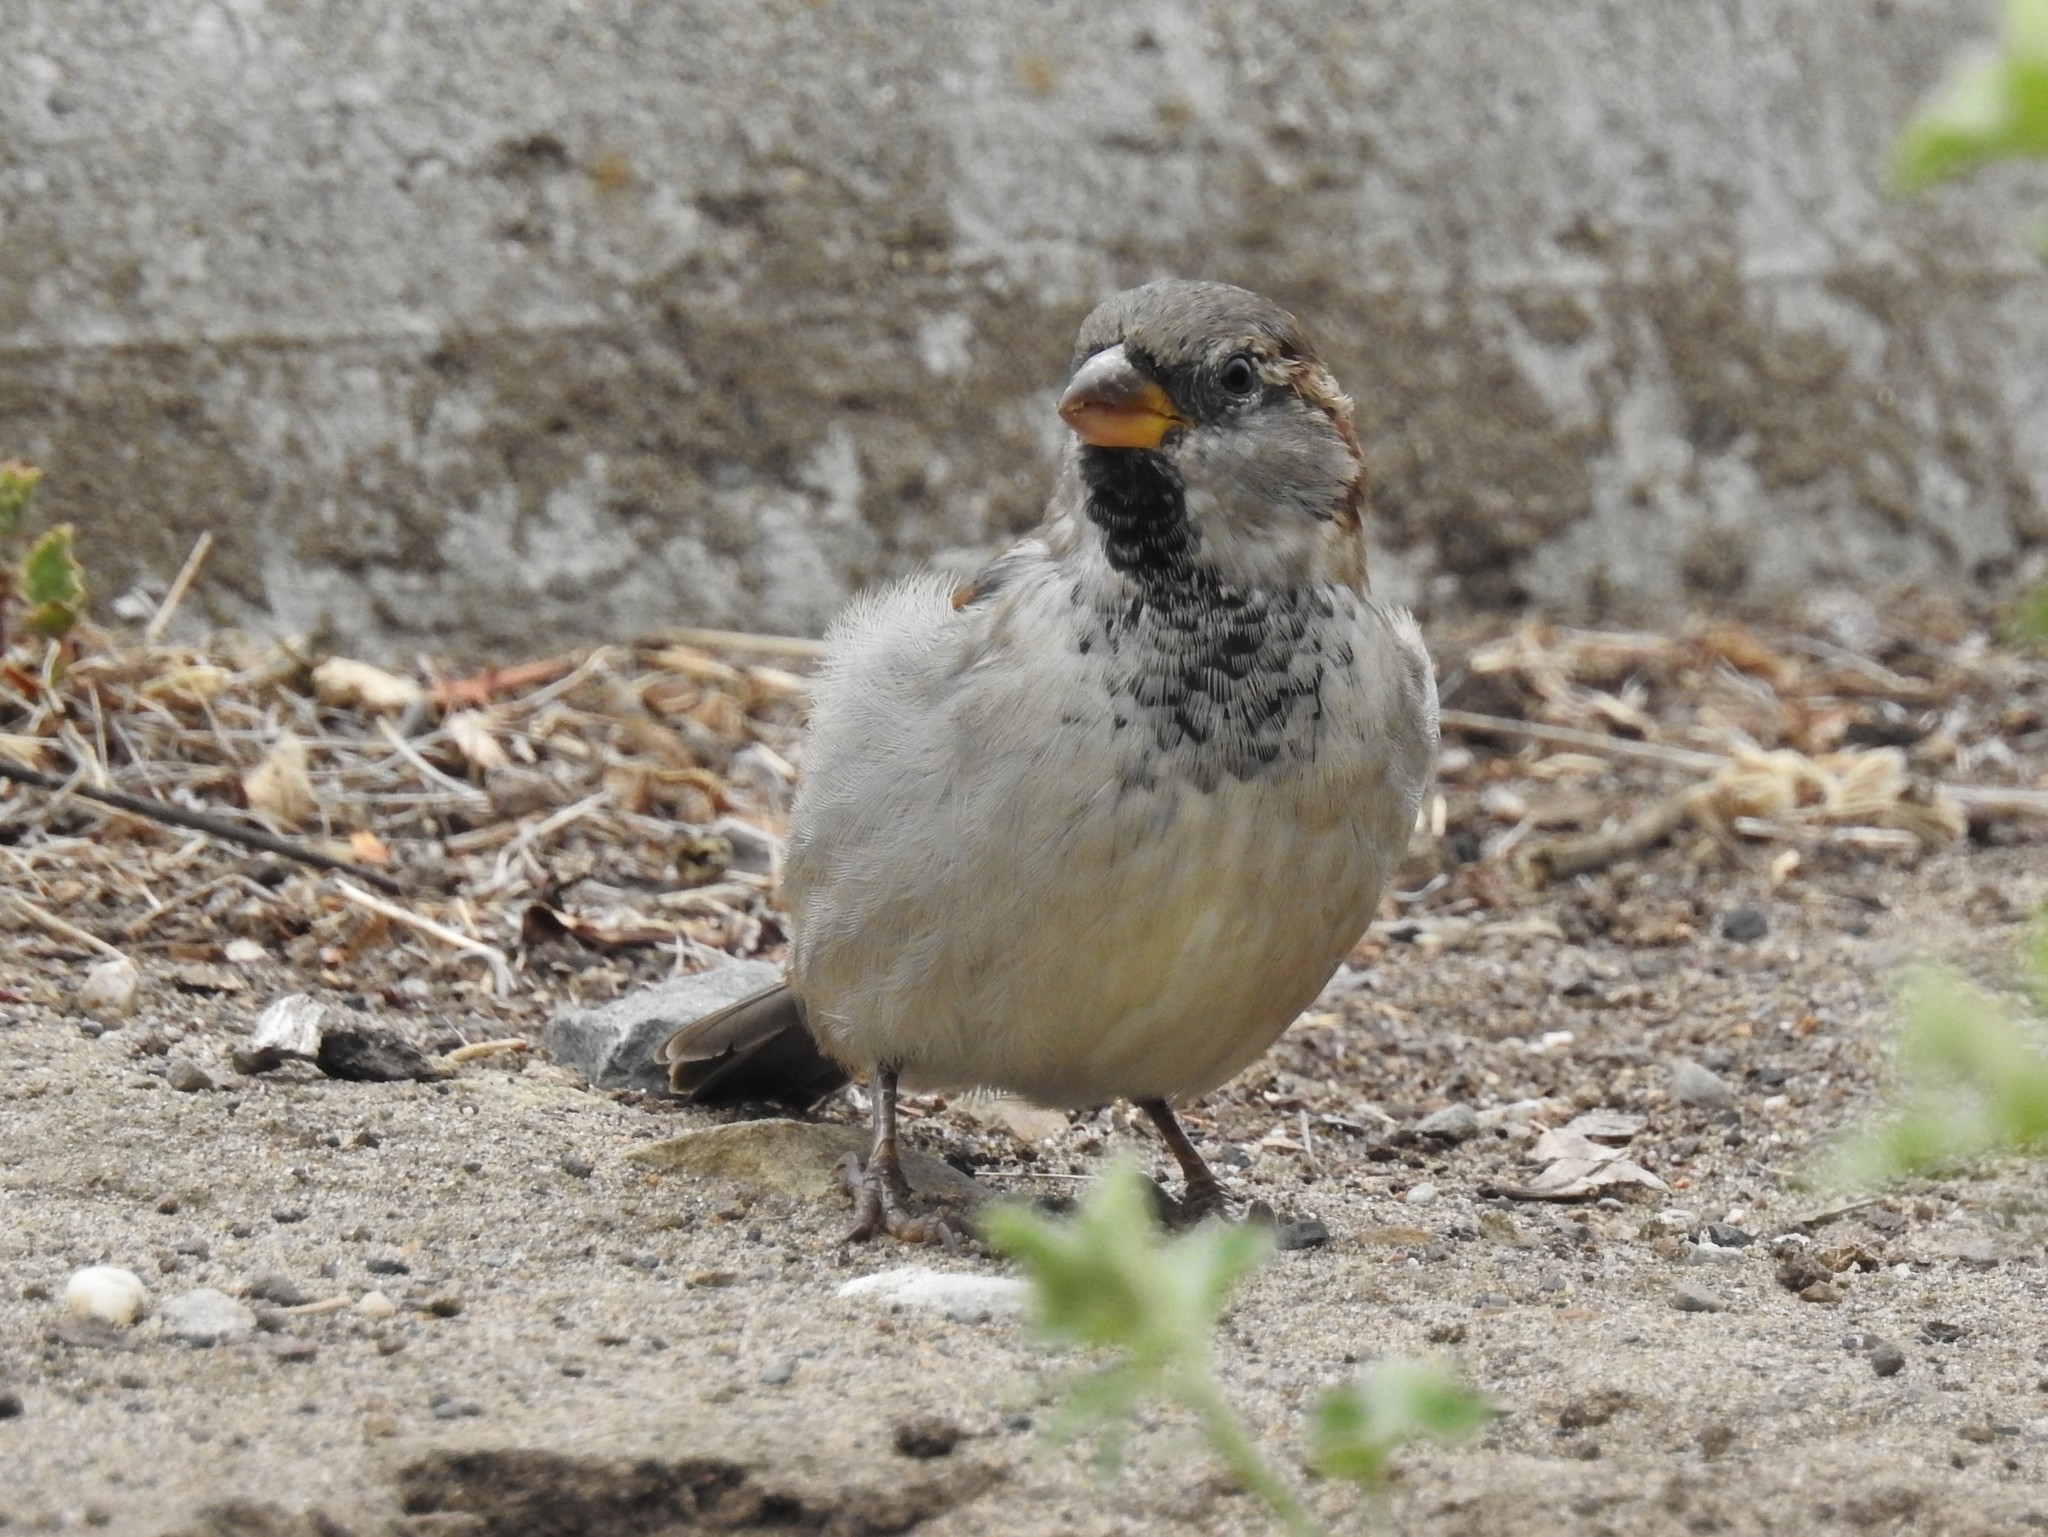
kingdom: Animalia
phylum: Chordata
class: Aves
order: Passeriformes
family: Passeridae
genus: Passer
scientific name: Passer domesticus
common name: House sparrow
